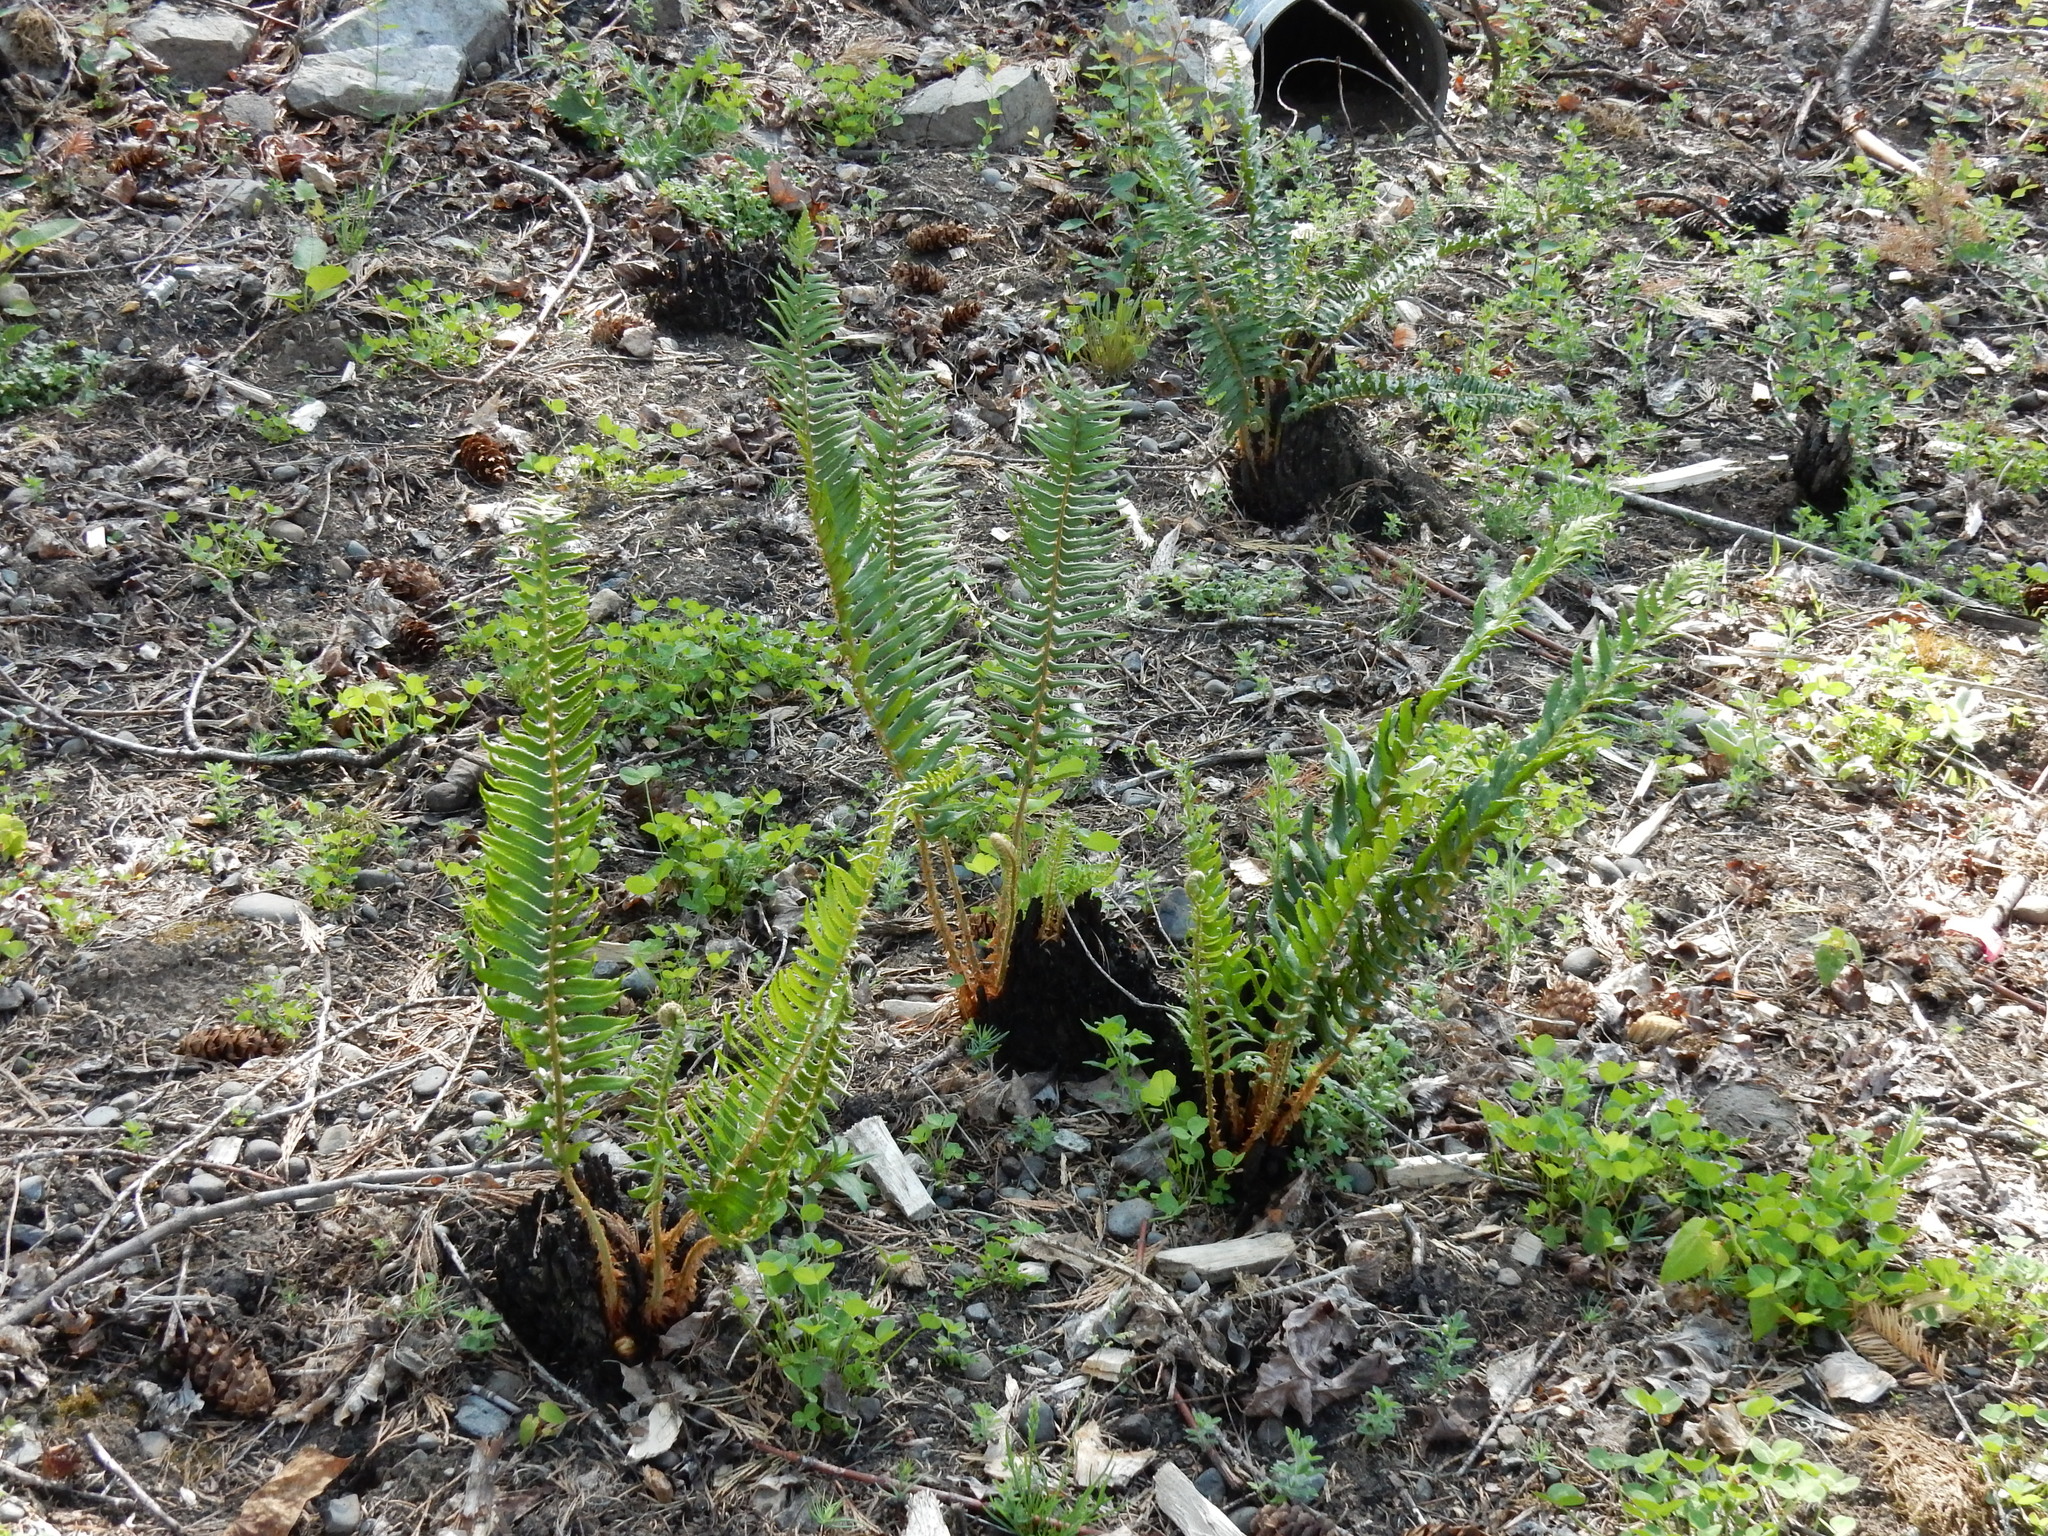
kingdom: Plantae
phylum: Tracheophyta
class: Polypodiopsida
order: Polypodiales
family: Dryopteridaceae
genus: Polystichum
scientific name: Polystichum munitum
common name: Western sword-fern
